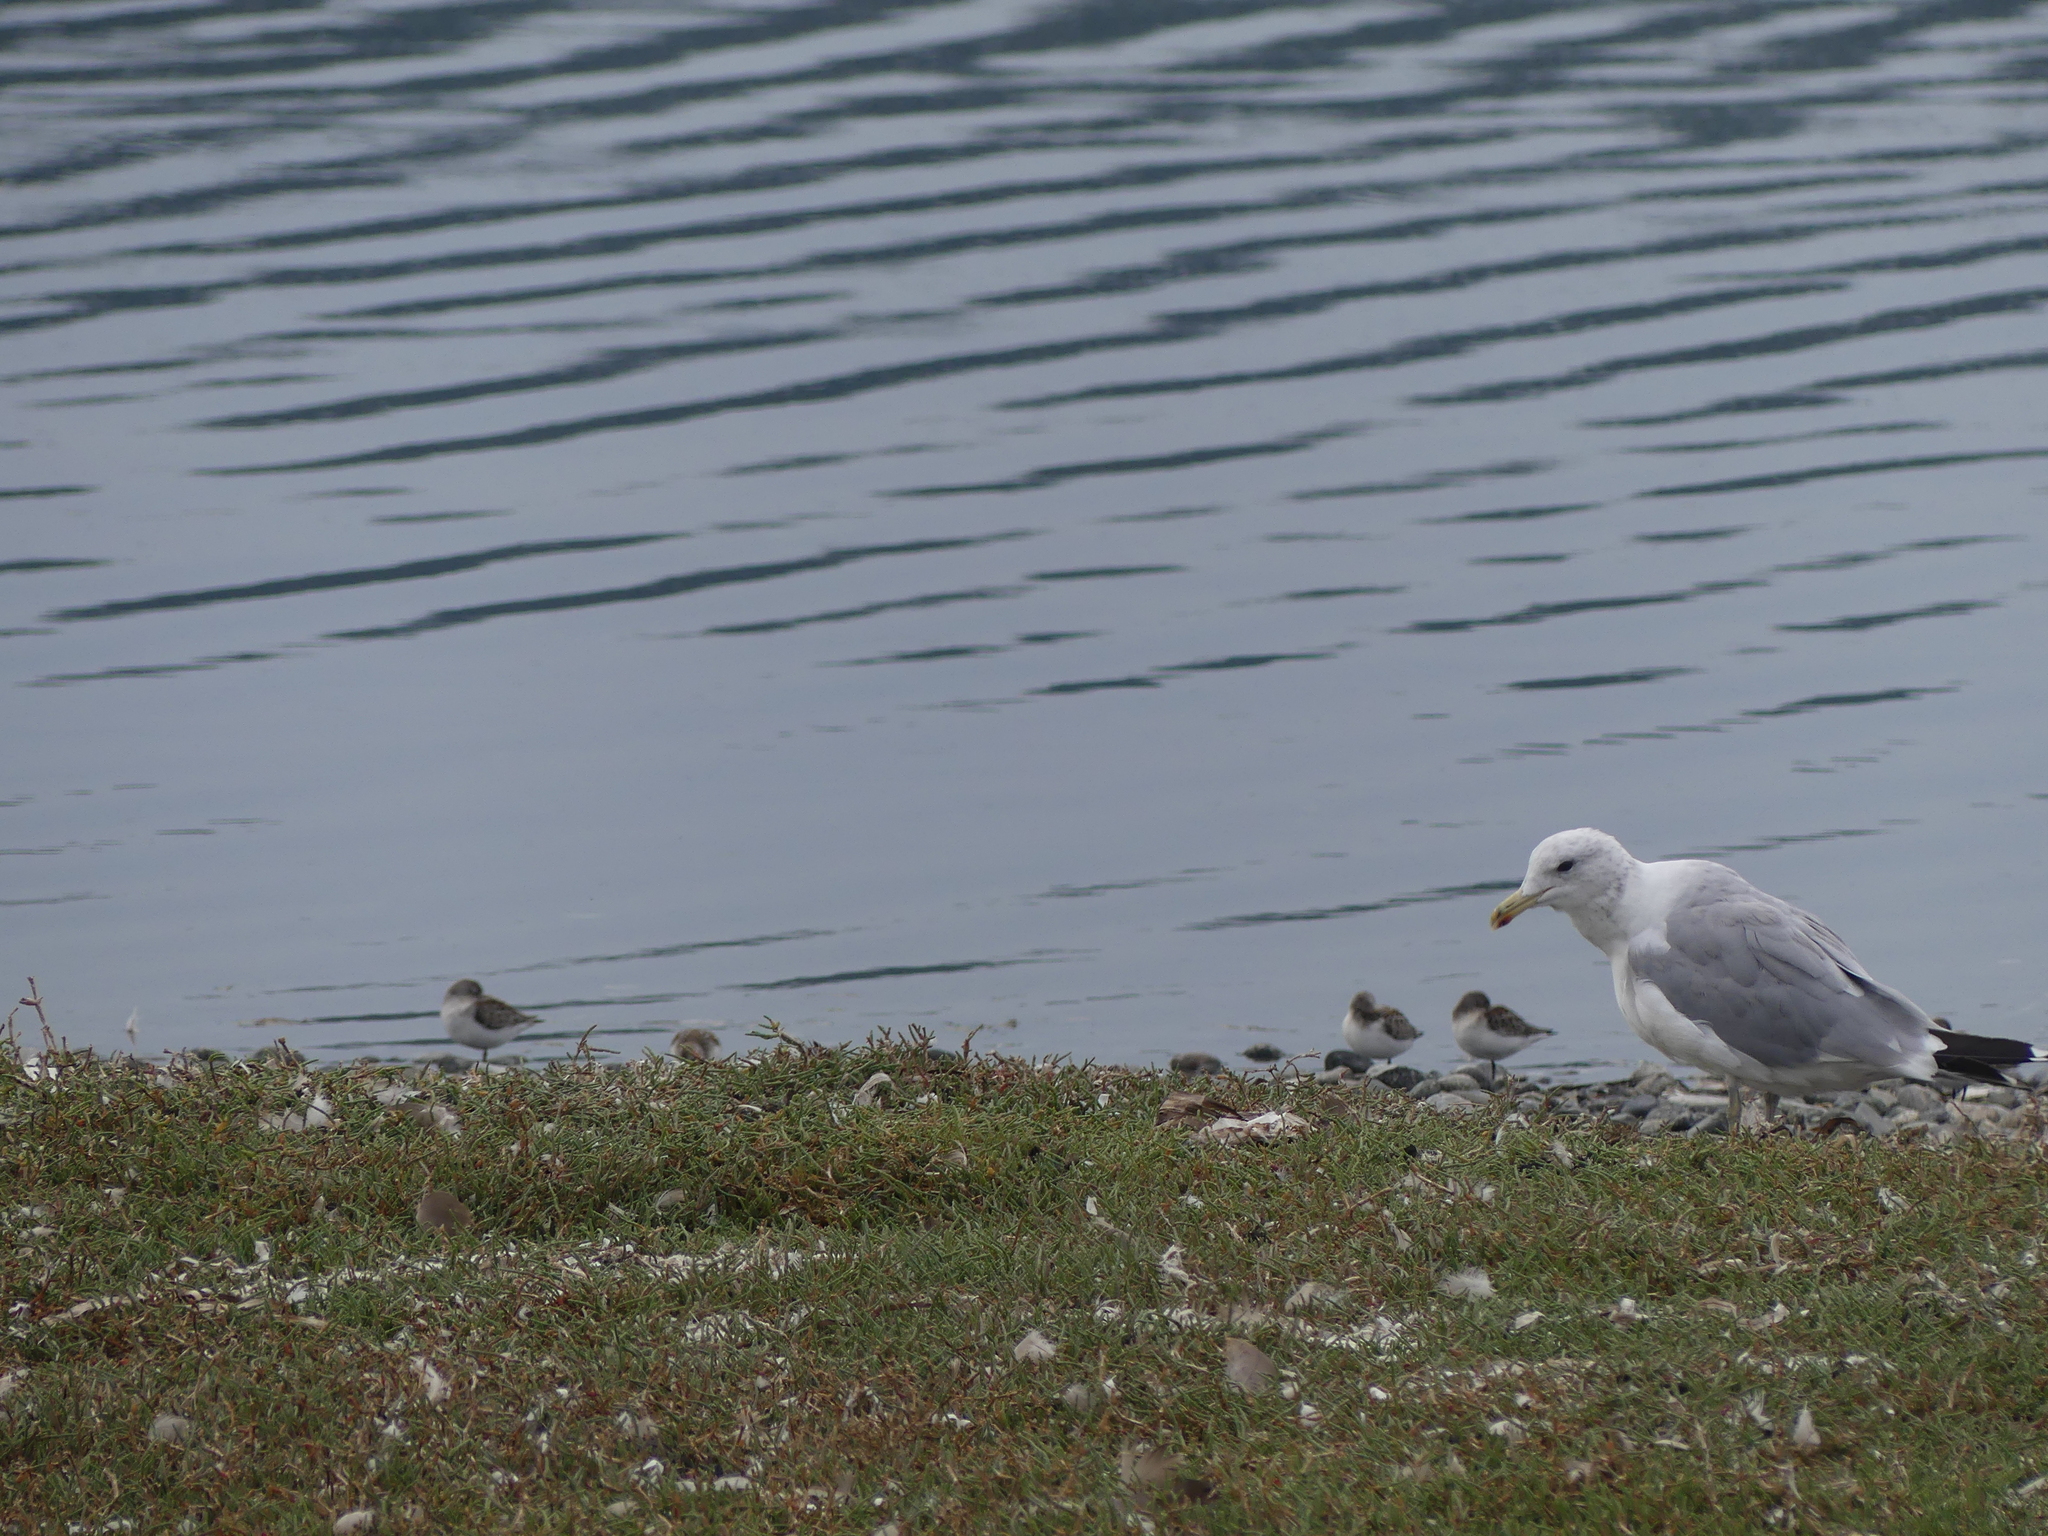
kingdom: Animalia
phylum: Chordata
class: Aves
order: Charadriiformes
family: Laridae
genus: Larus
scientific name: Larus californicus
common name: California gull
